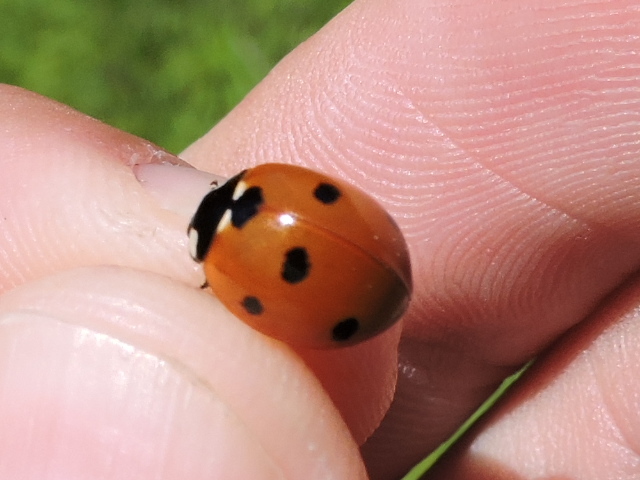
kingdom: Animalia
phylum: Arthropoda
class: Insecta
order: Coleoptera
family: Coccinellidae
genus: Coccinella
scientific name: Coccinella septempunctata
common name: Sevenspotted lady beetle
